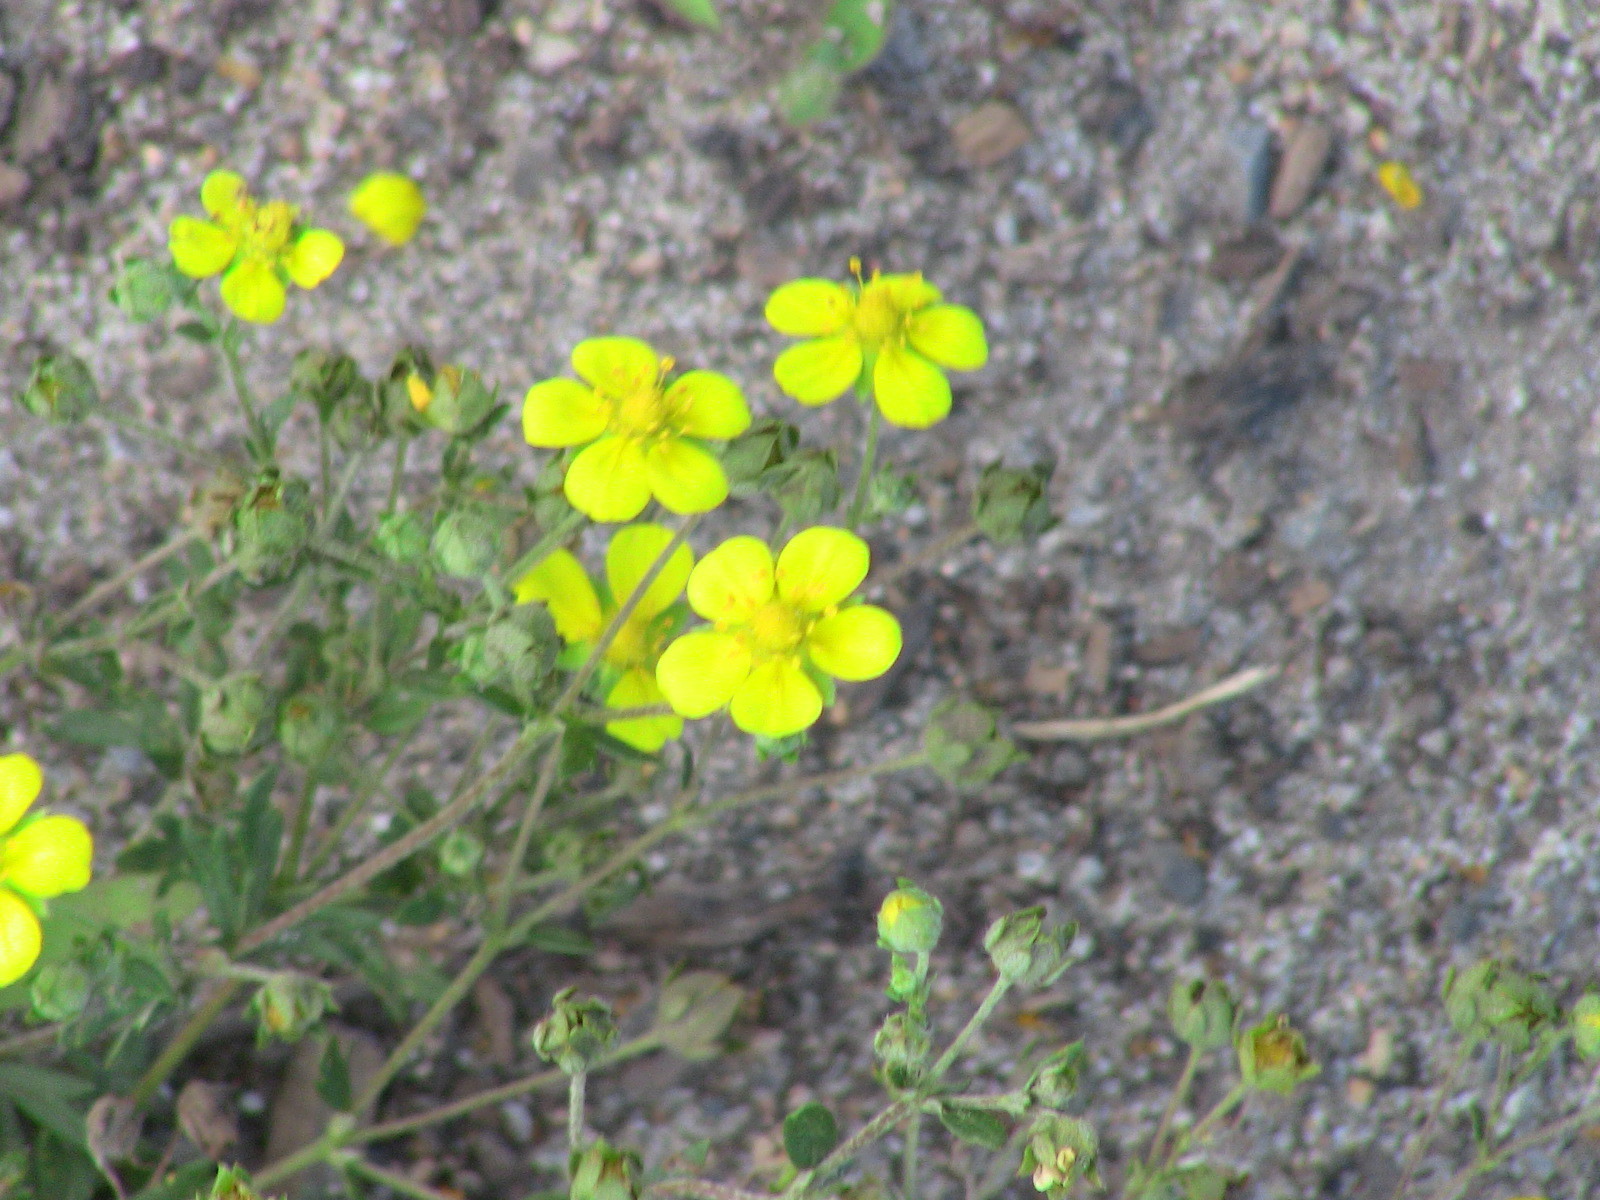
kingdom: Plantae
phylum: Tracheophyta
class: Magnoliopsida
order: Rosales
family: Rosaceae
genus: Potentilla
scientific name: Potentilla argentea
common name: Hoary cinquefoil
